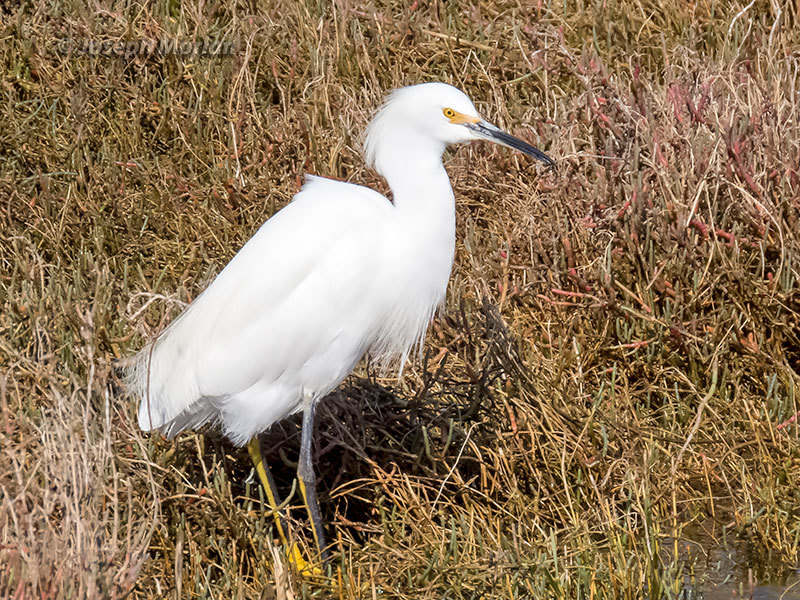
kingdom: Animalia
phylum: Chordata
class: Aves
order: Pelecaniformes
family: Ardeidae
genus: Egretta
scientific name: Egretta thula
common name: Snowy egret
